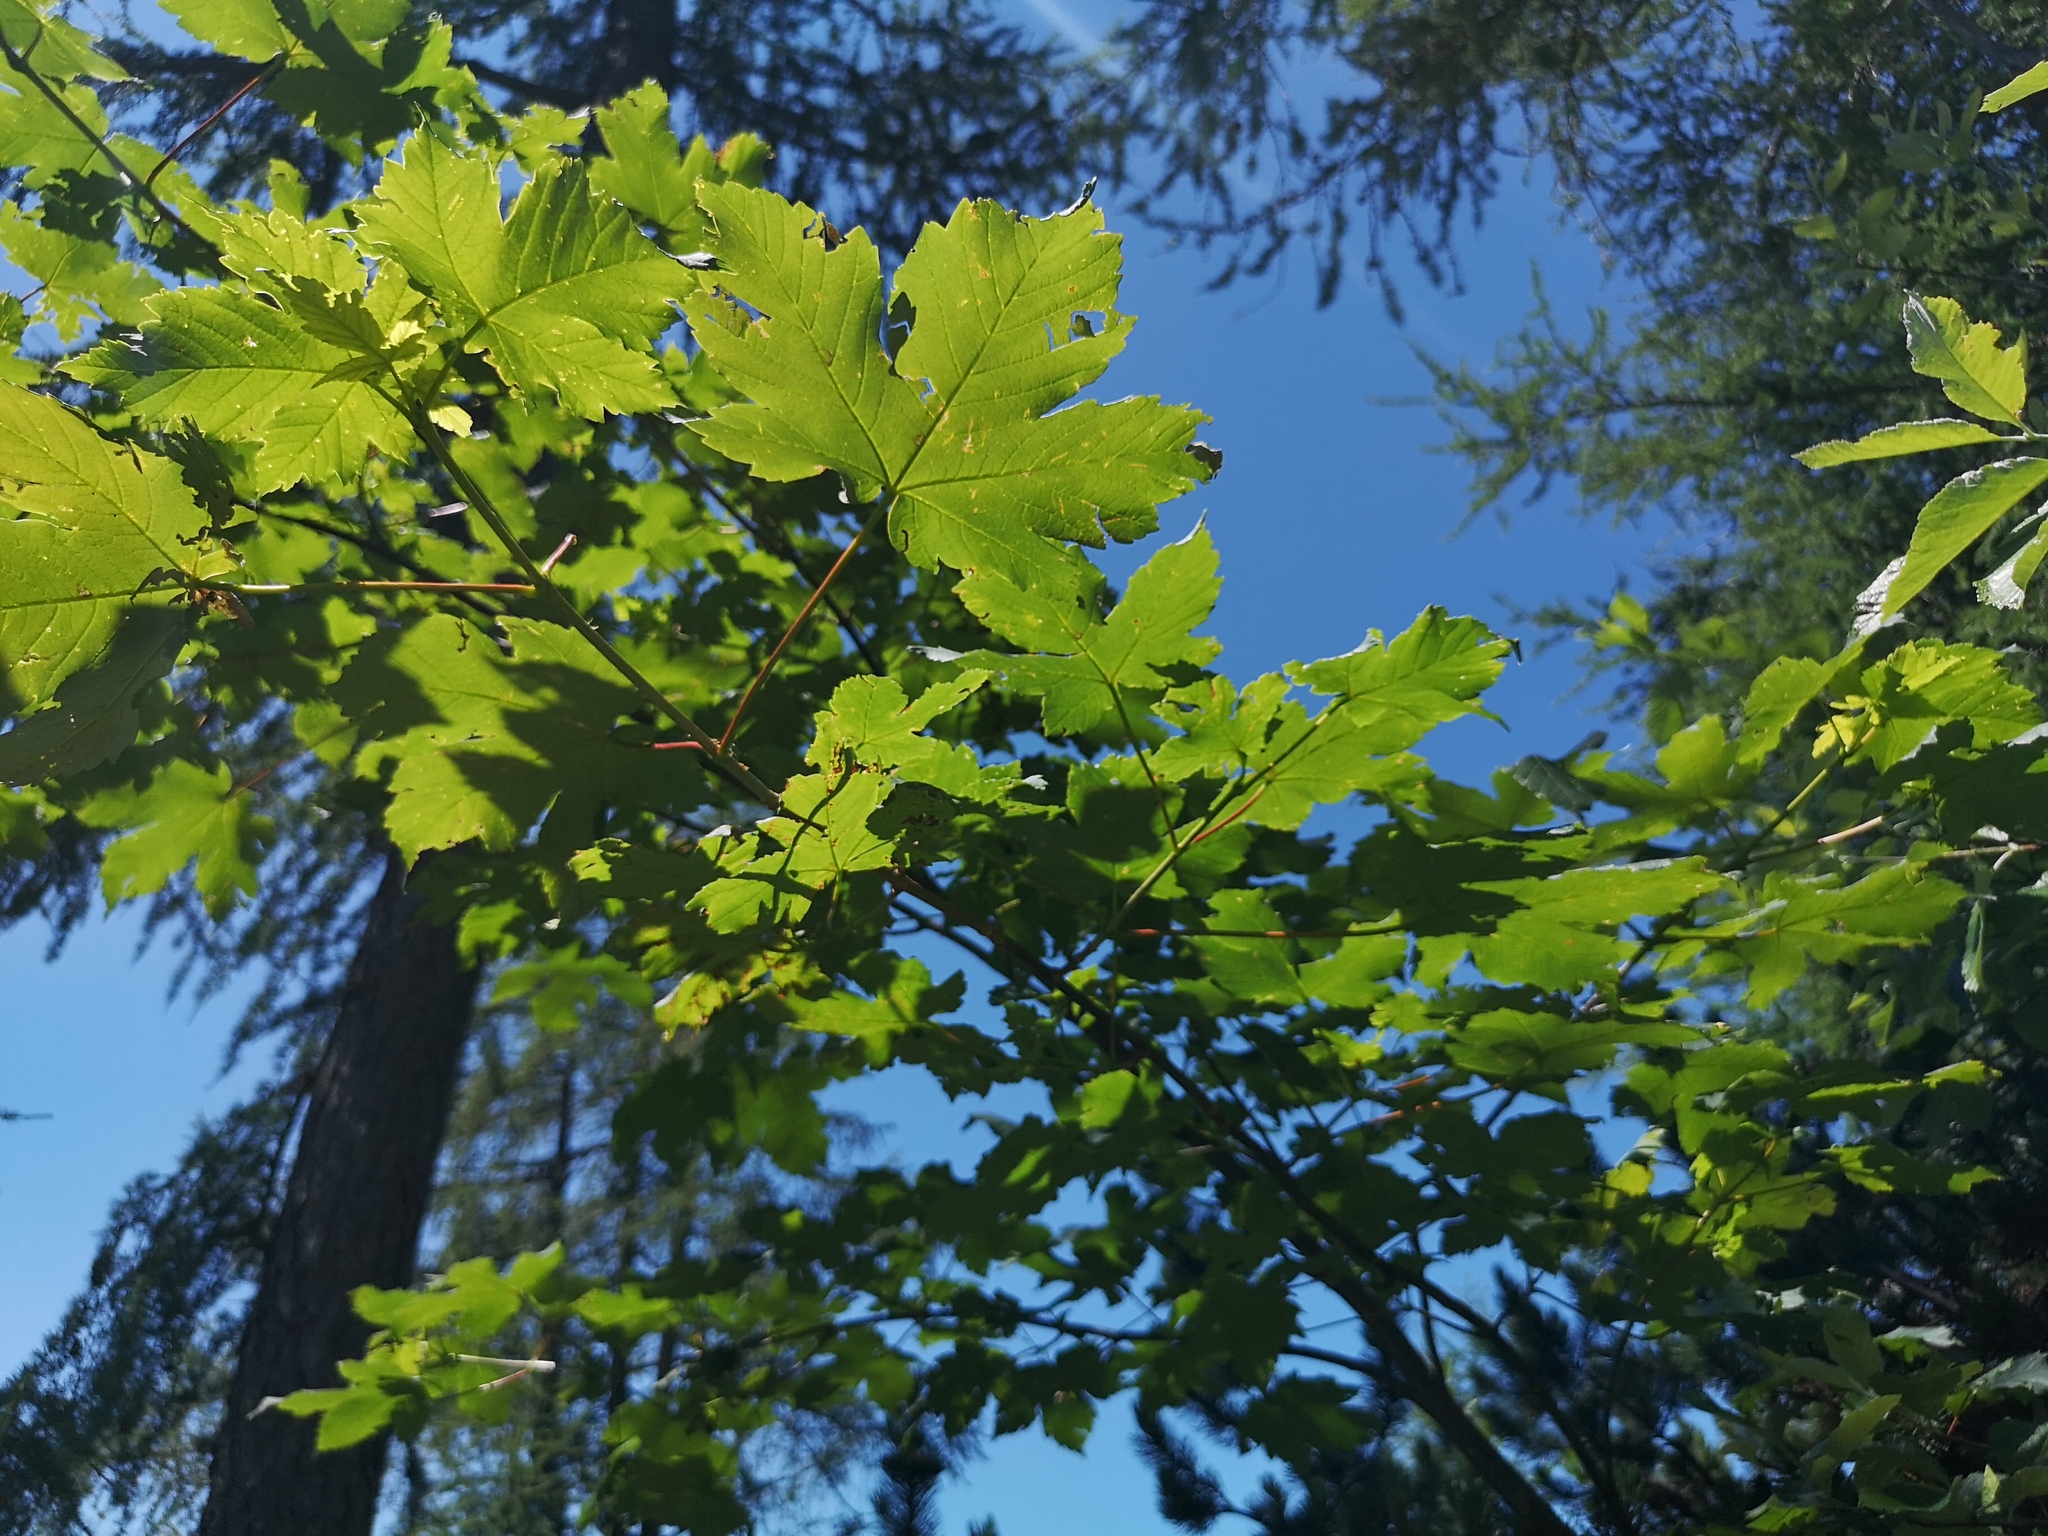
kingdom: Plantae
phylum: Tracheophyta
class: Magnoliopsida
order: Sapindales
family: Sapindaceae
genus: Acer
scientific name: Acer pseudoplatanus
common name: Sycamore
